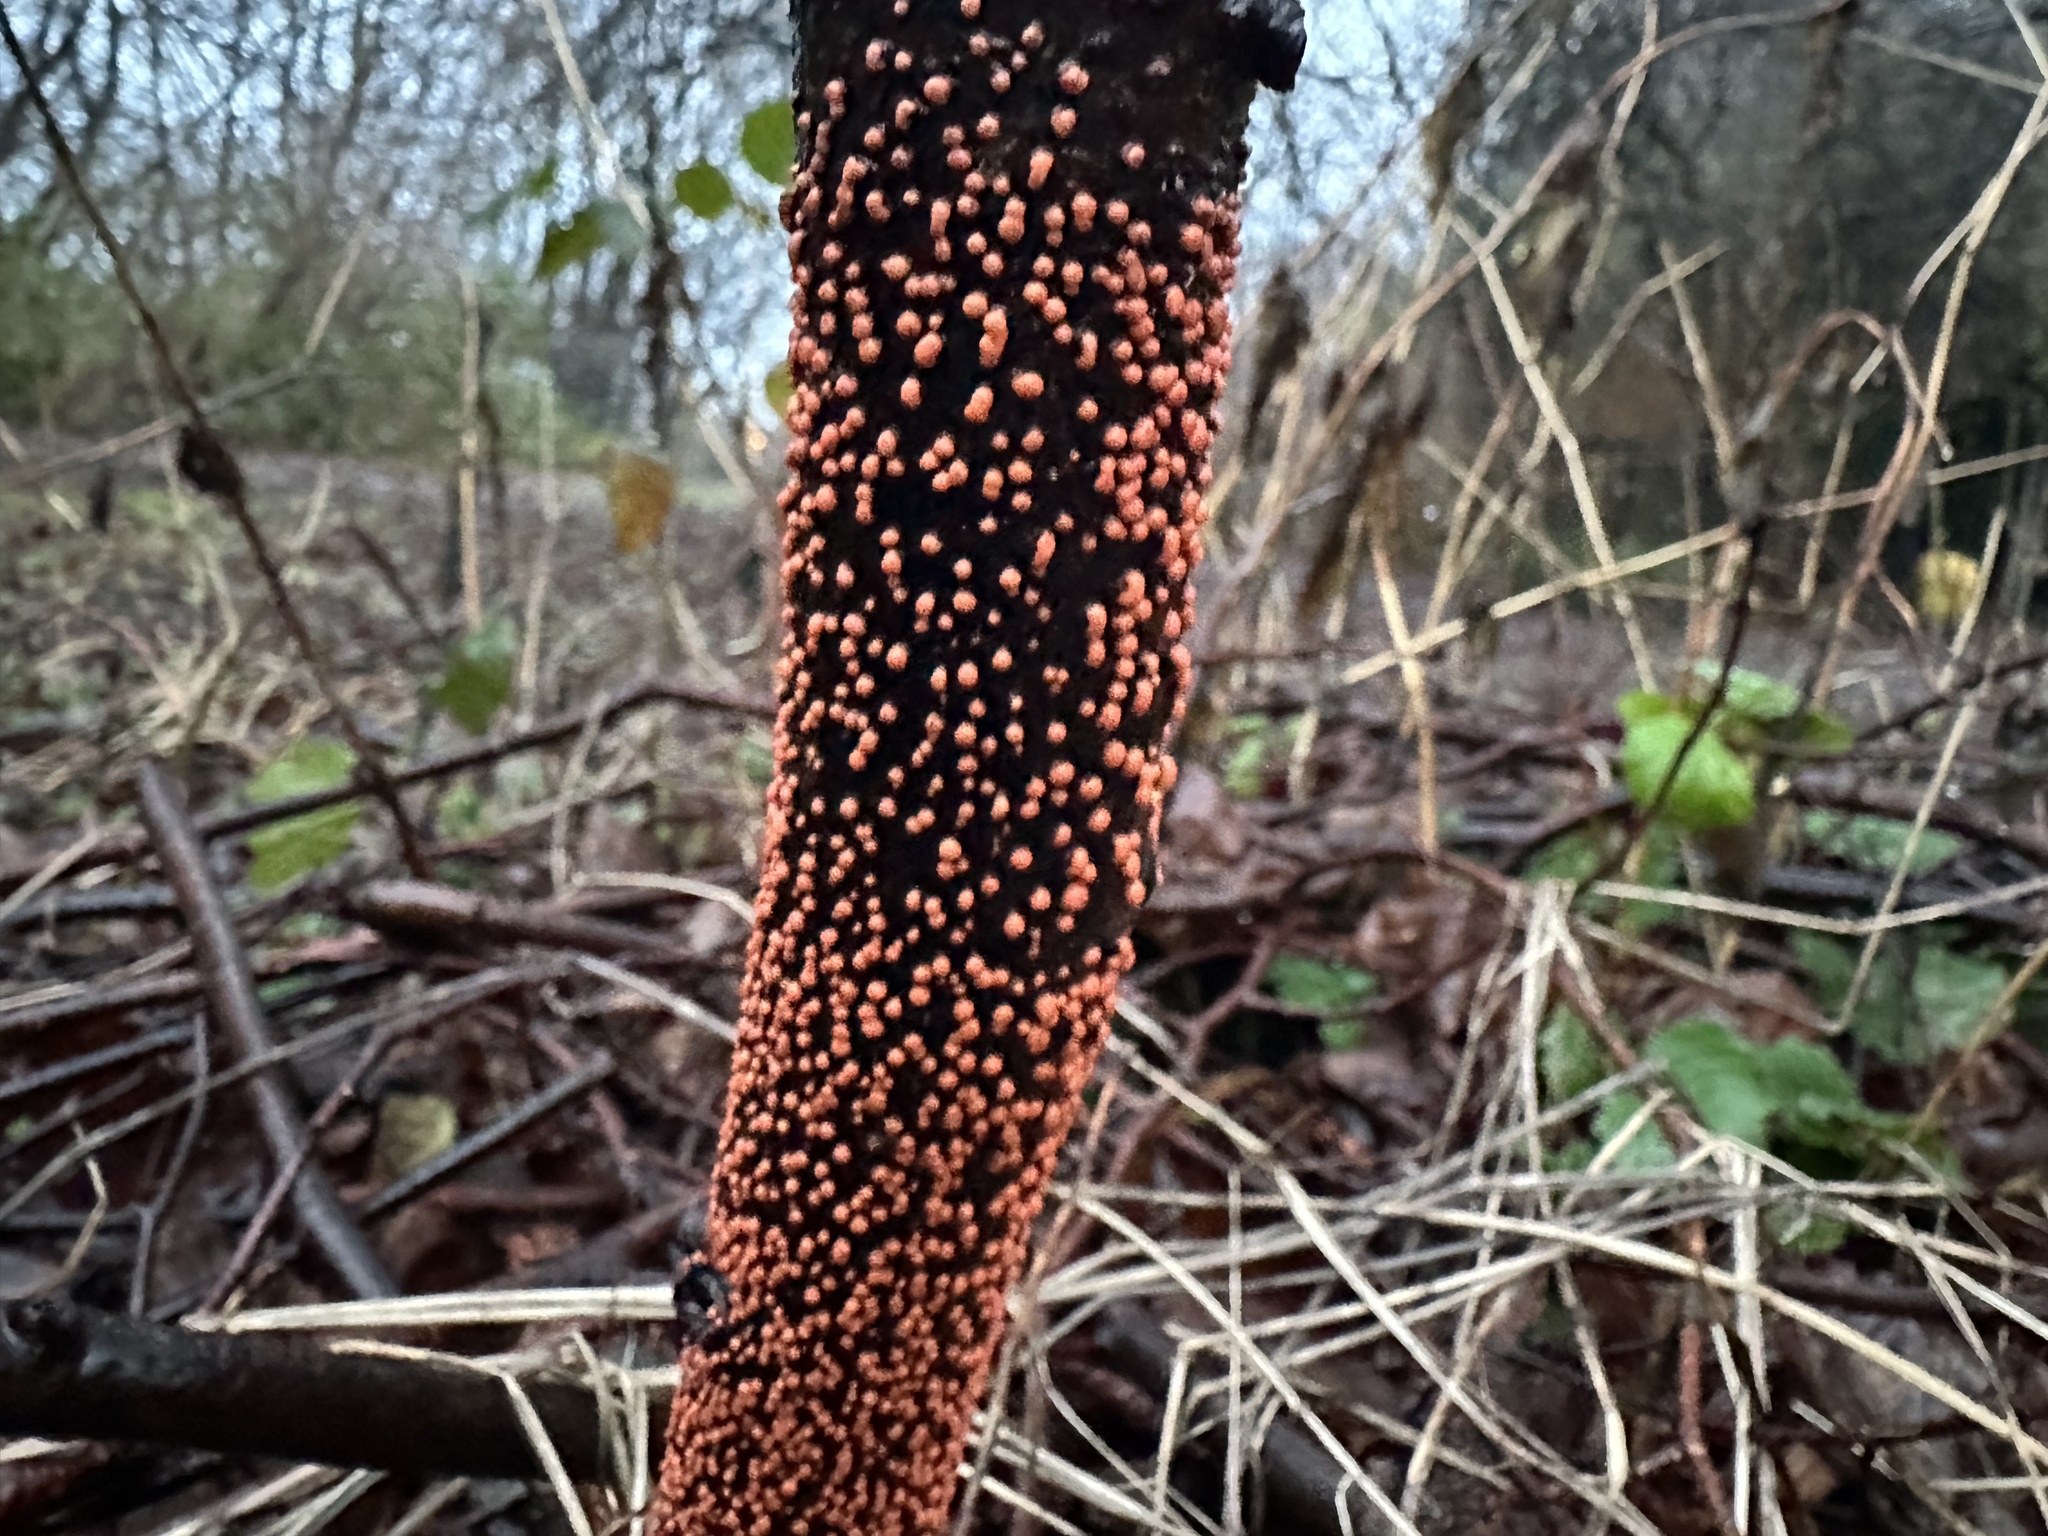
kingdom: Fungi
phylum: Ascomycota
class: Sordariomycetes
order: Hypocreales
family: Nectriaceae
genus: Nectria
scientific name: Nectria cinnabarina
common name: Coral spot
